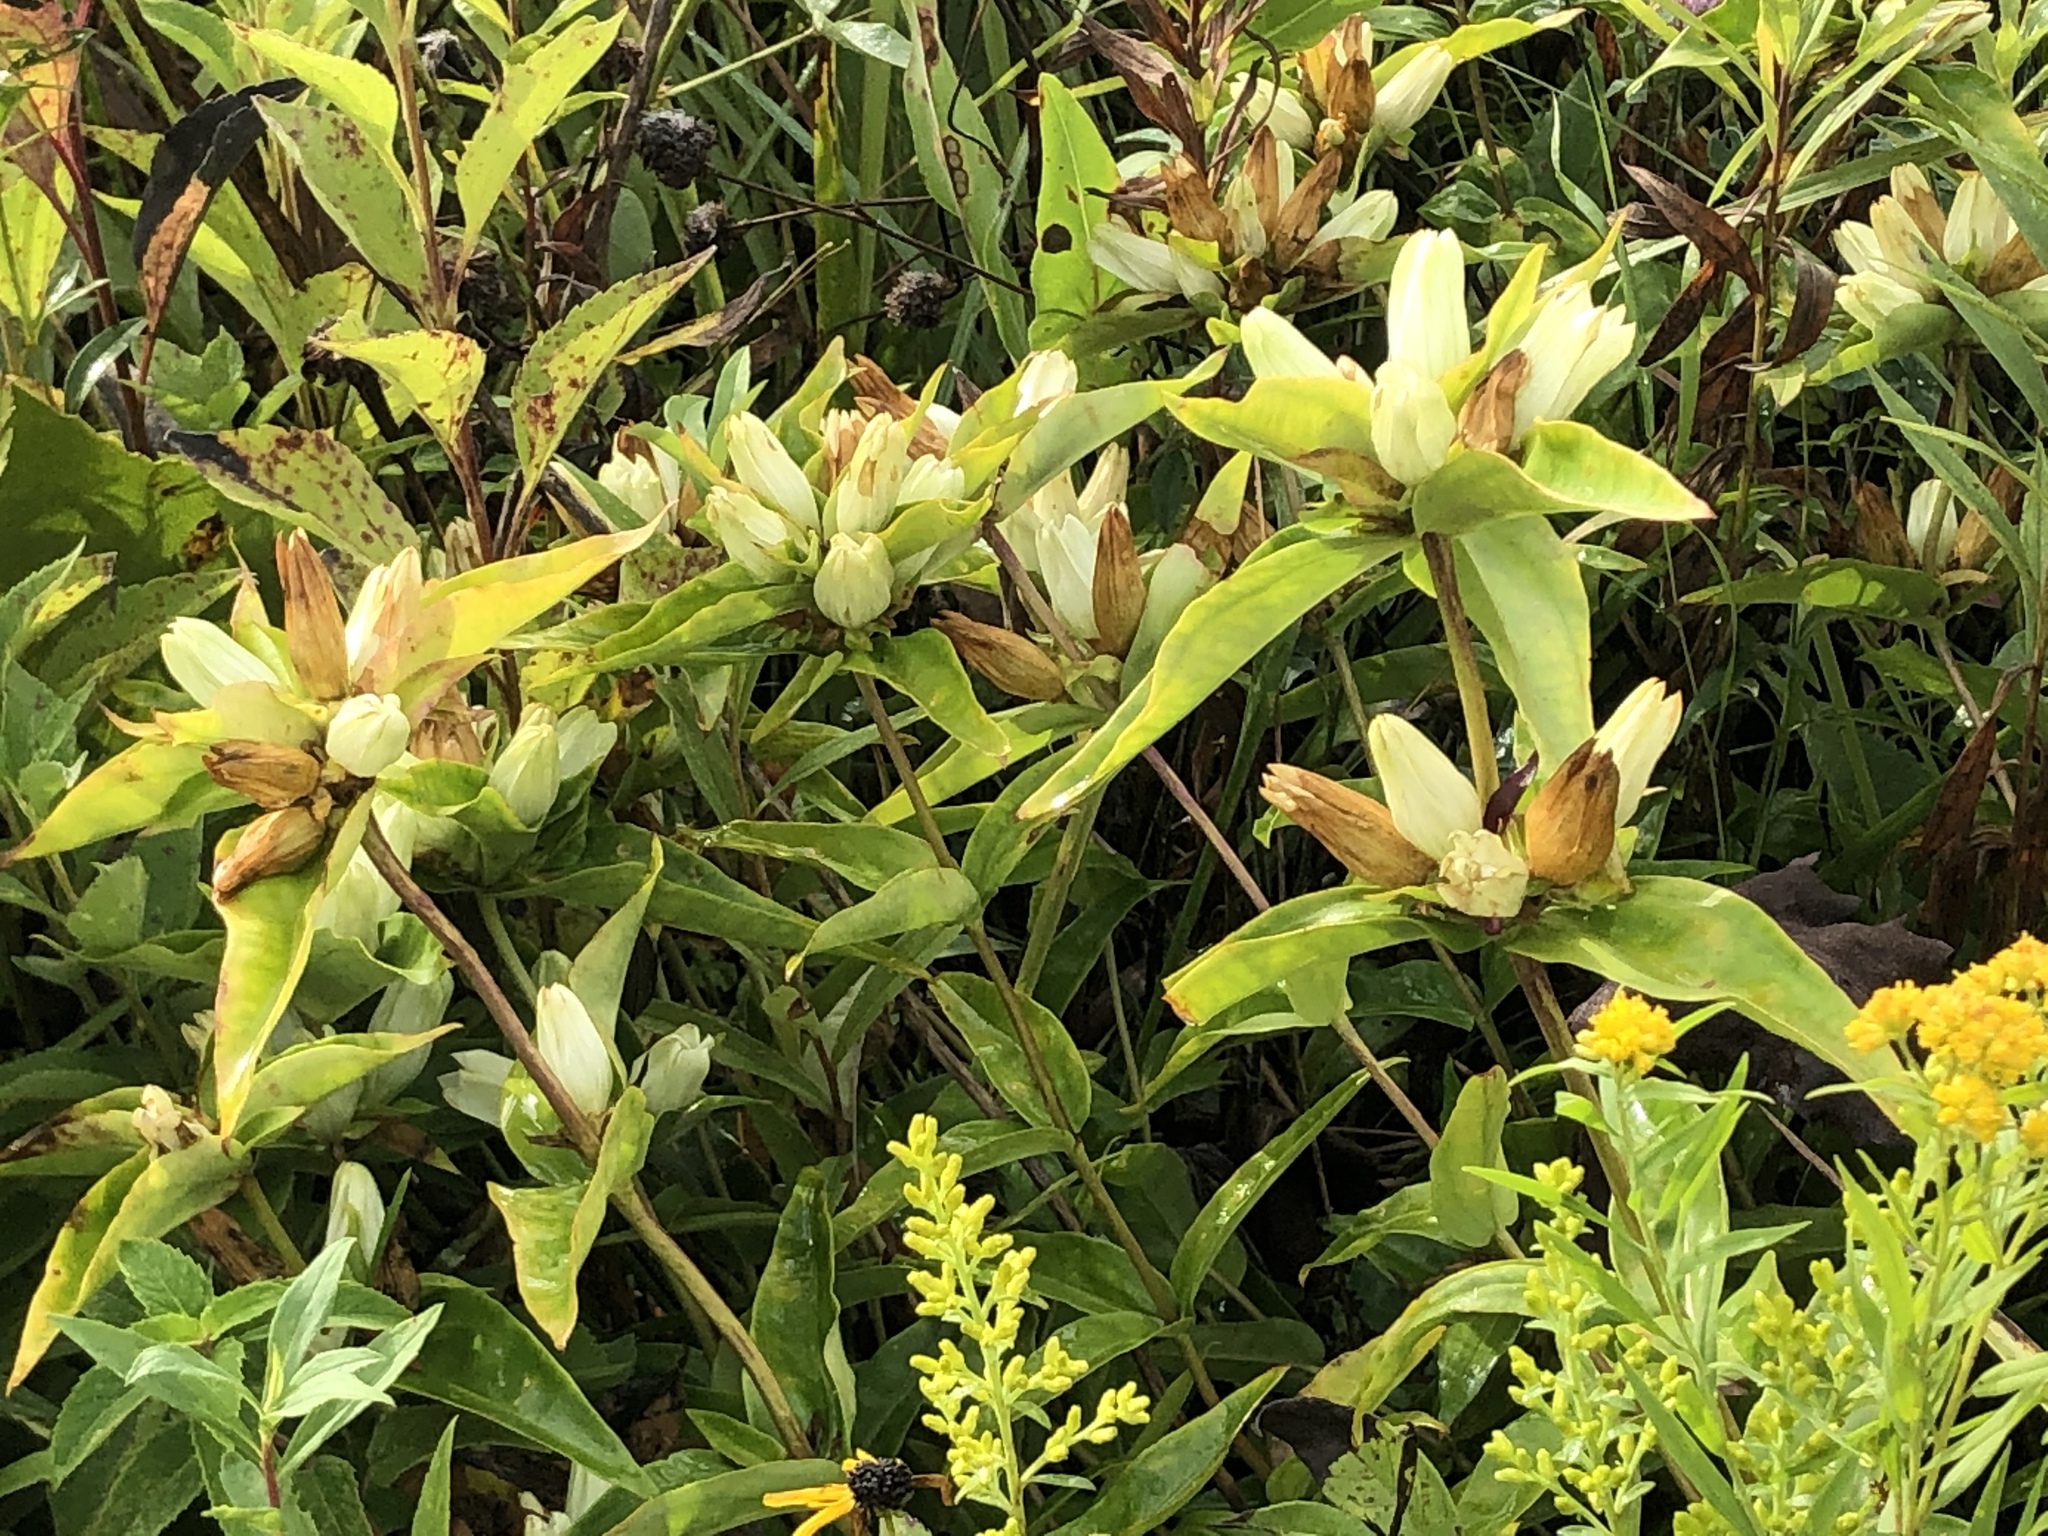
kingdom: Plantae
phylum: Tracheophyta
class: Magnoliopsida
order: Gentianales
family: Gentianaceae
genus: Gentiana
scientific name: Gentiana alba
